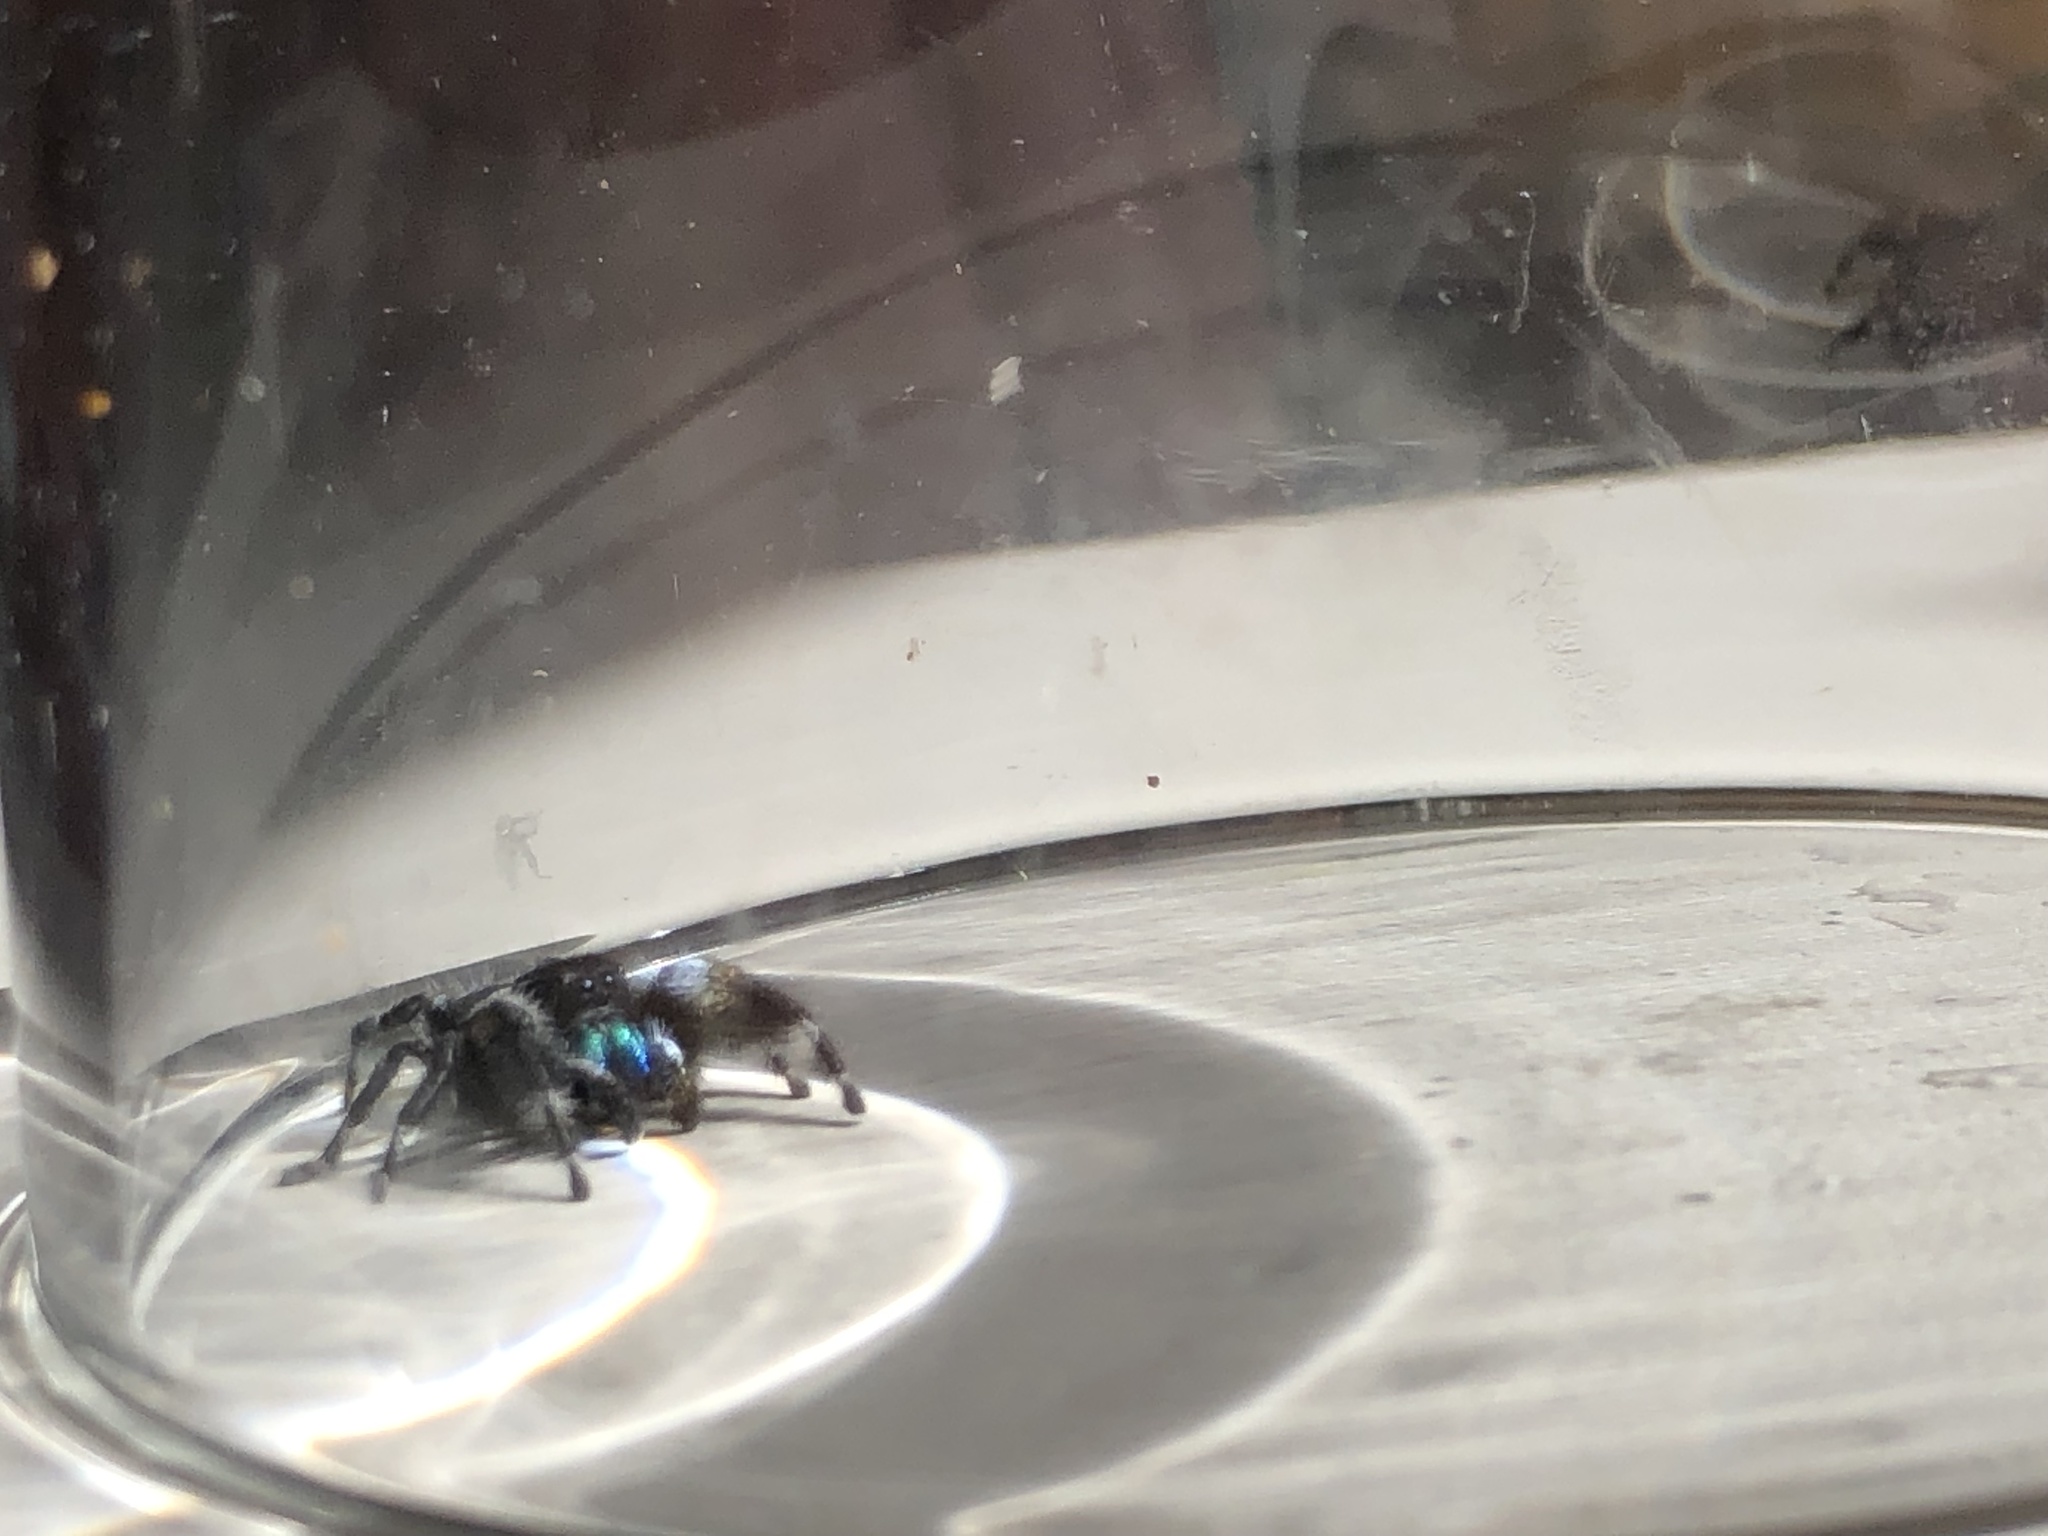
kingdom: Animalia
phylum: Arthropoda
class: Arachnida
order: Araneae
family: Salticidae
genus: Phidippus
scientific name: Phidippus audax
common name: Bold jumper
